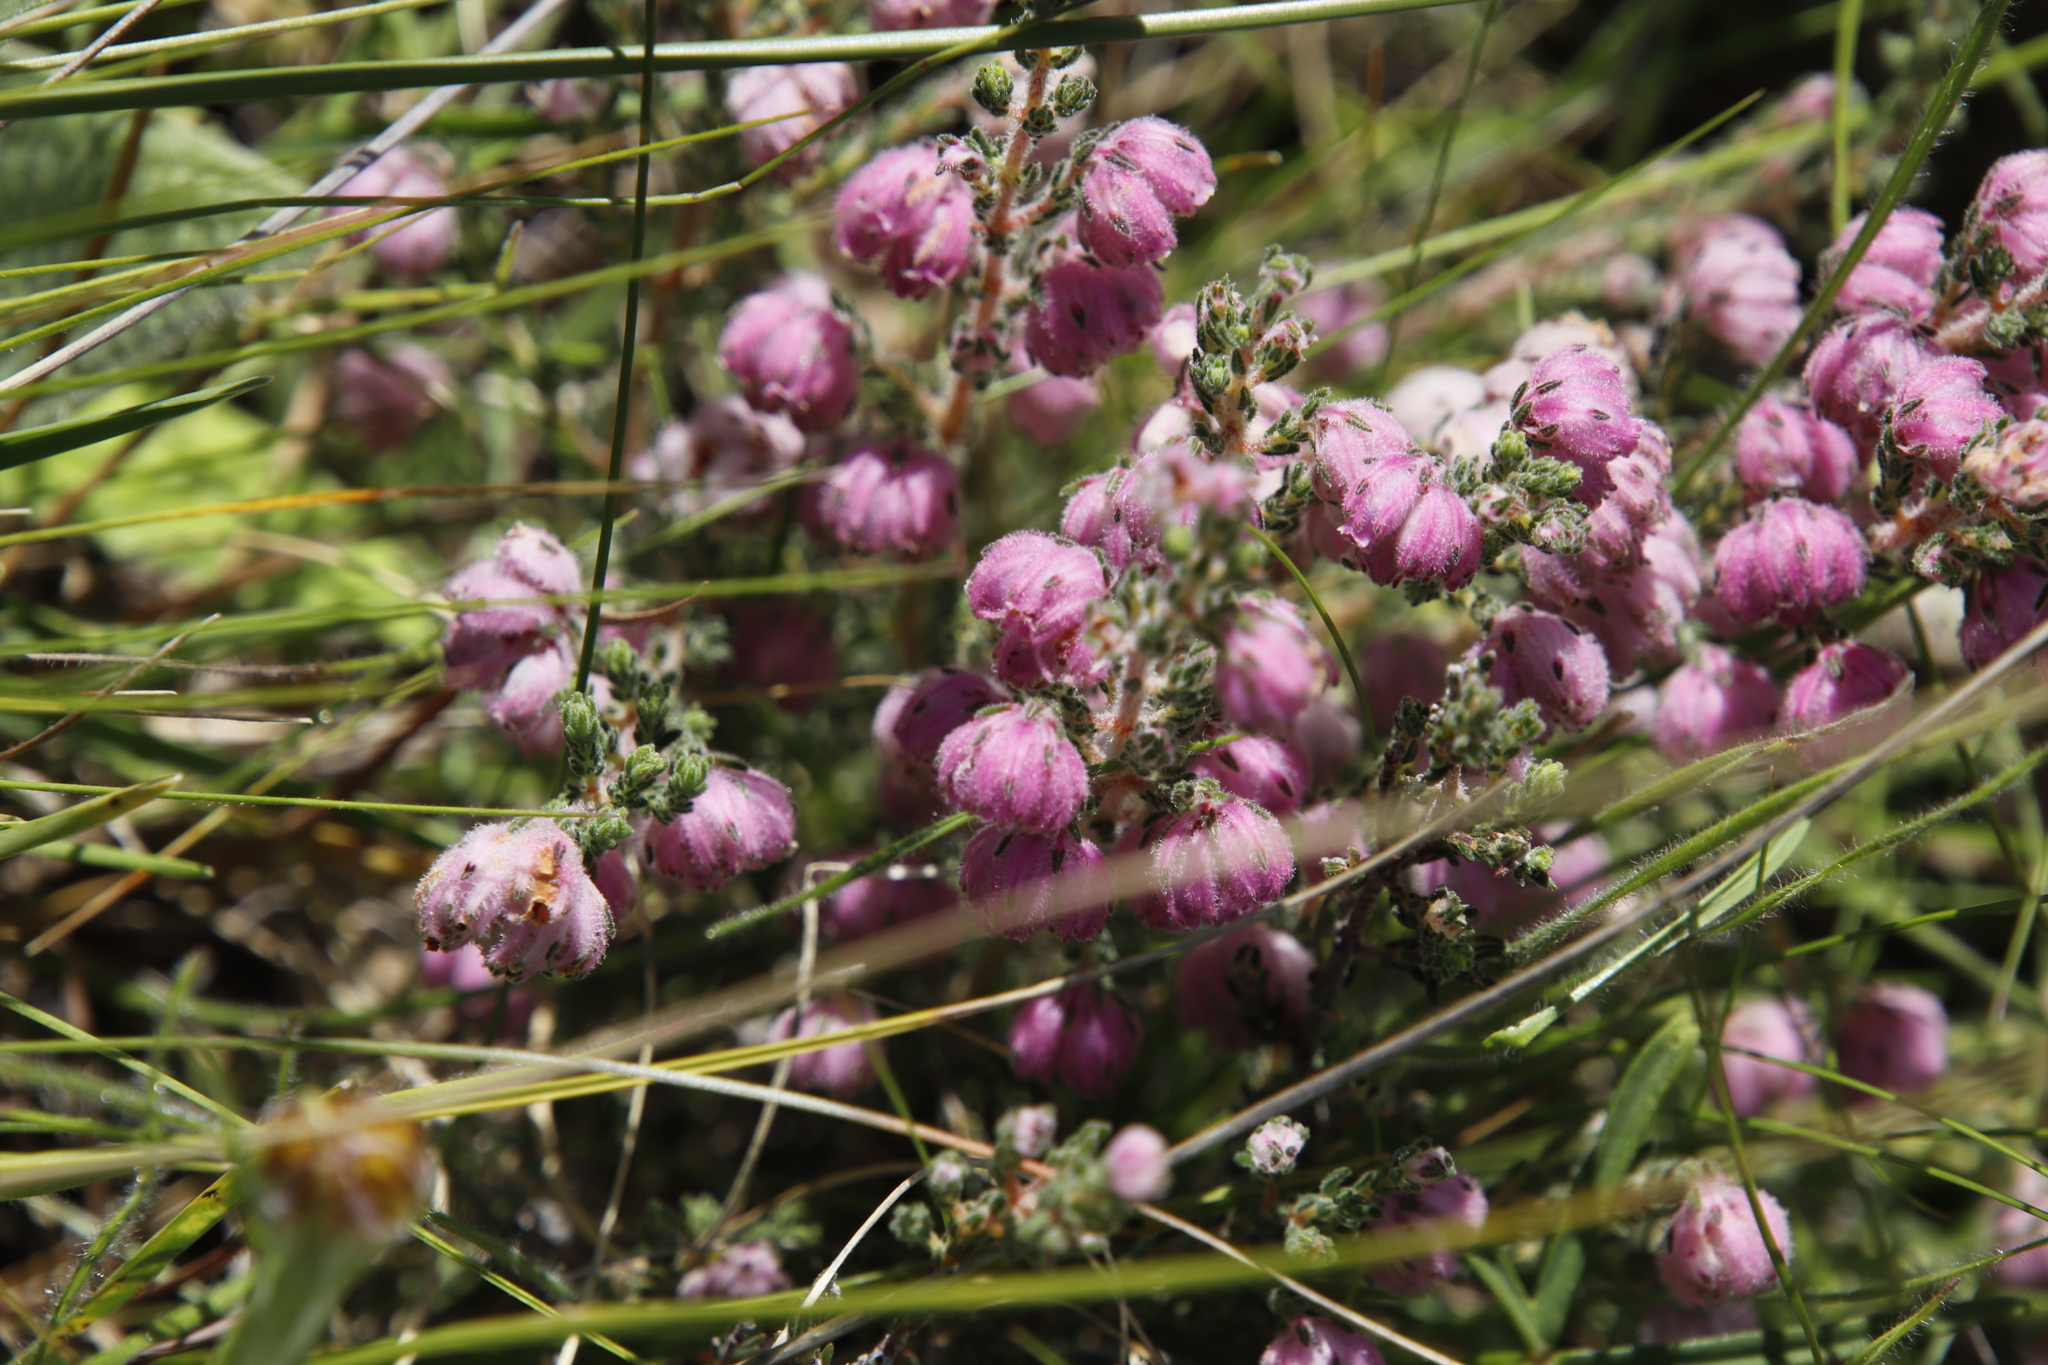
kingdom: Plantae
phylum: Tracheophyta
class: Magnoliopsida
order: Ericales
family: Ericaceae
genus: Erica
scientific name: Erica cooperi
